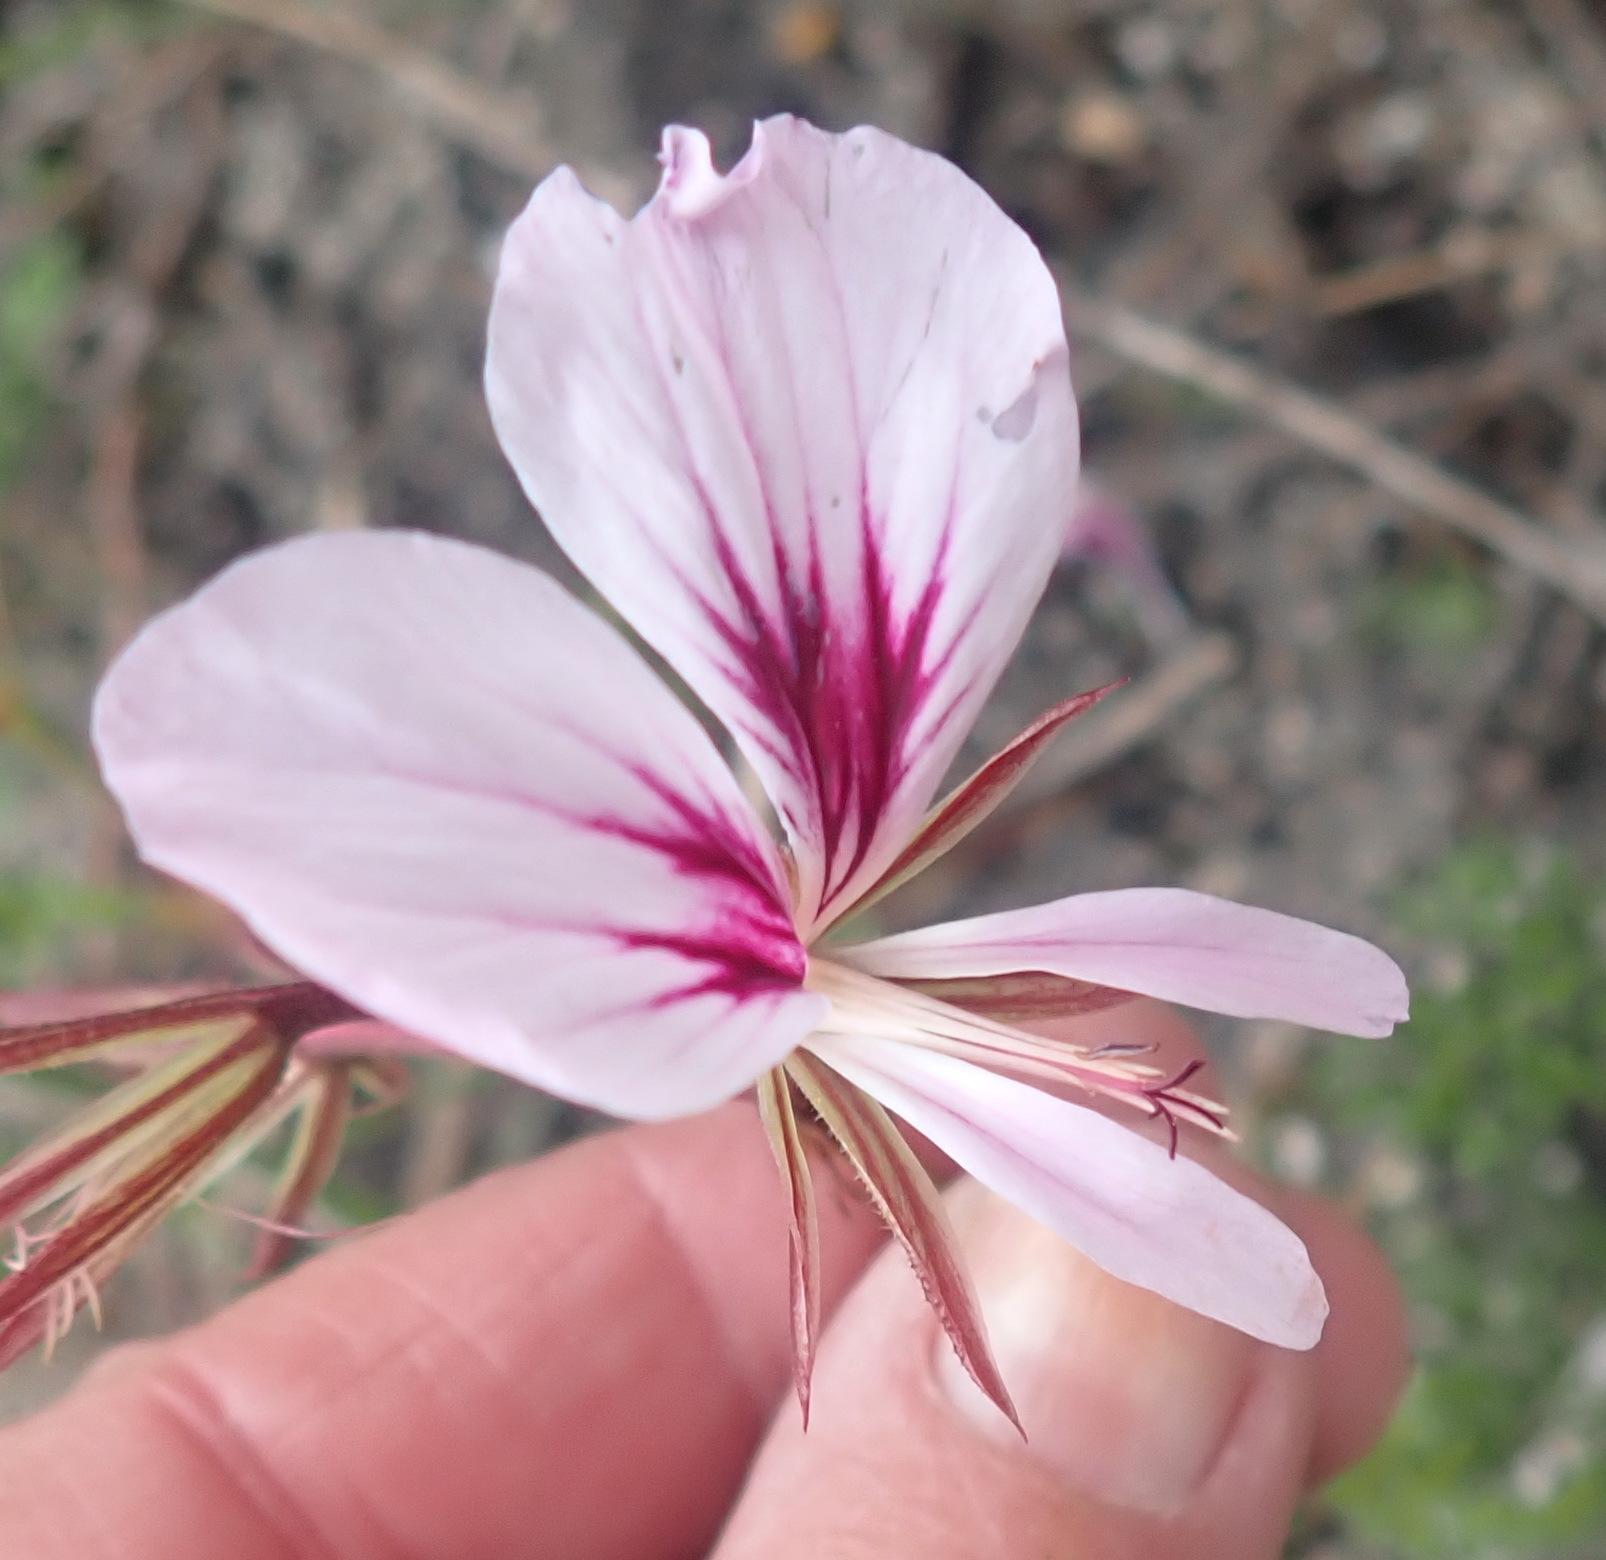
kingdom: Plantae
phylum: Tracheophyta
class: Magnoliopsida
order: Geraniales
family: Geraniaceae
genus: Pelargonium
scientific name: Pelargonium longicaule
